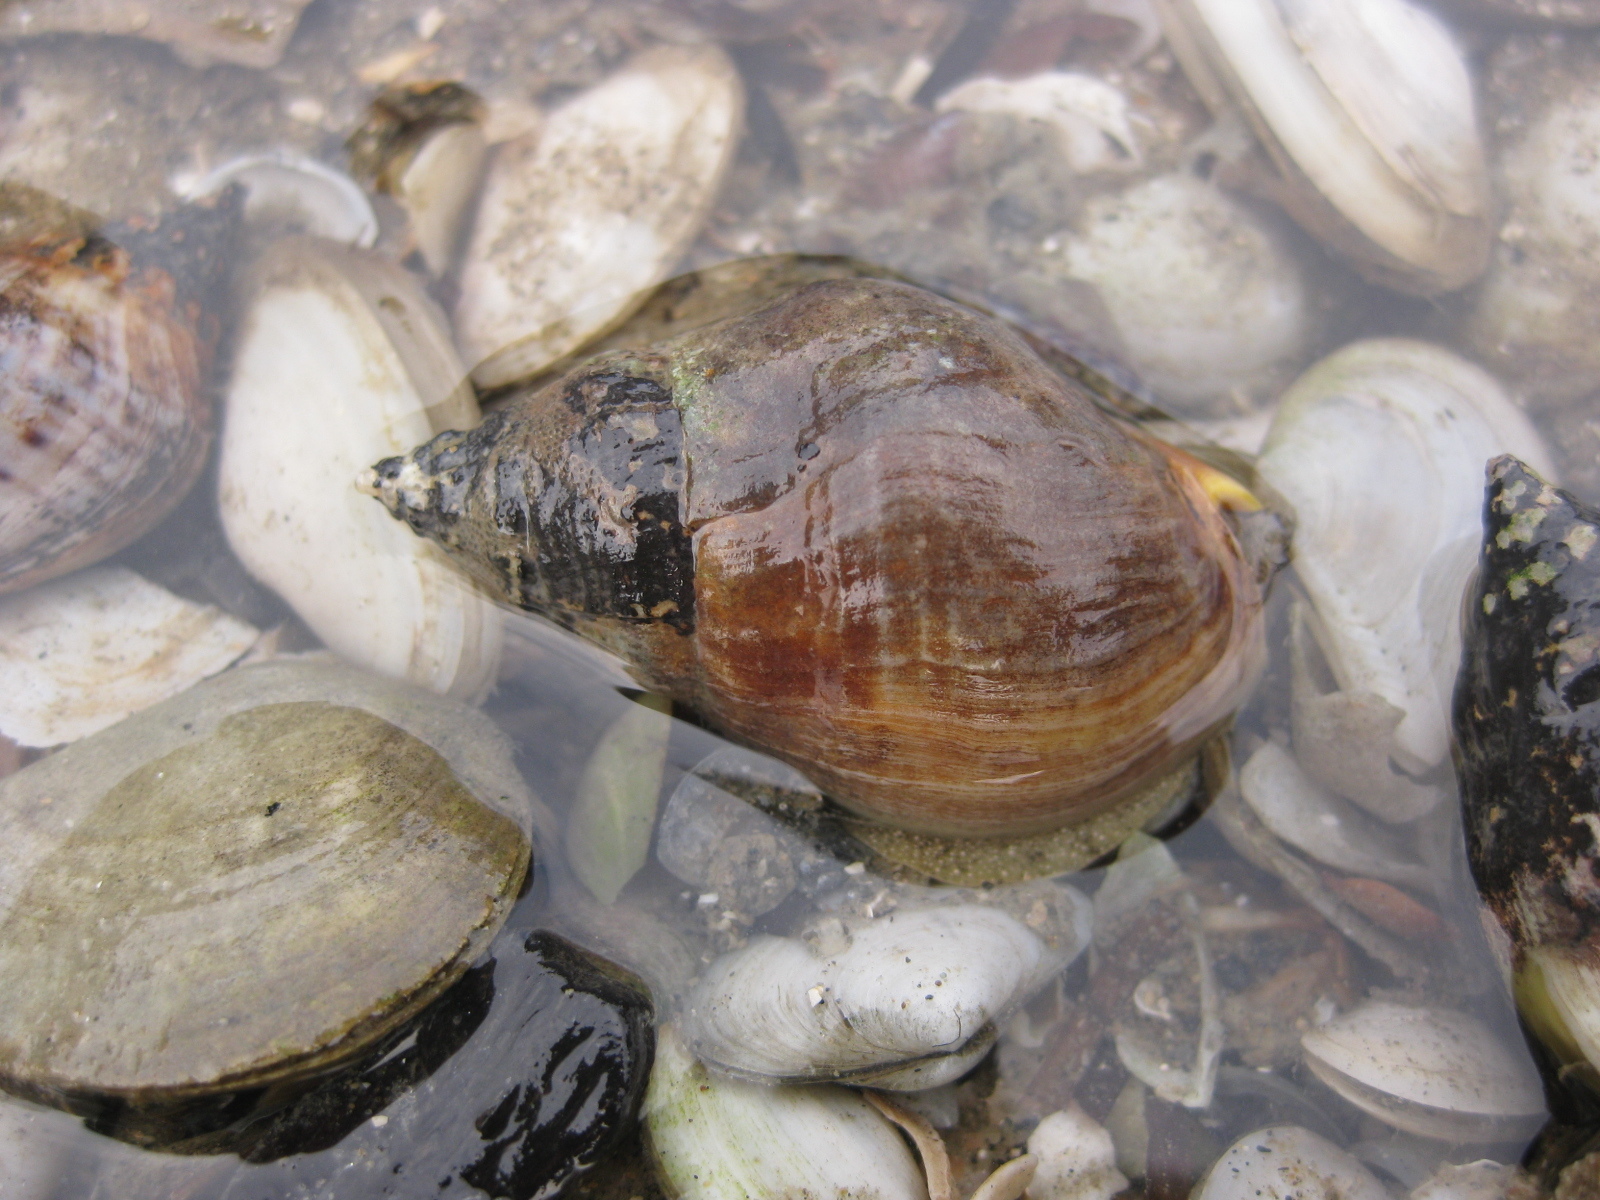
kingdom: Animalia
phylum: Mollusca
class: Gastropoda
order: Neogastropoda
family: Cominellidae
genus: Cominella
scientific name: Cominella adspersa
